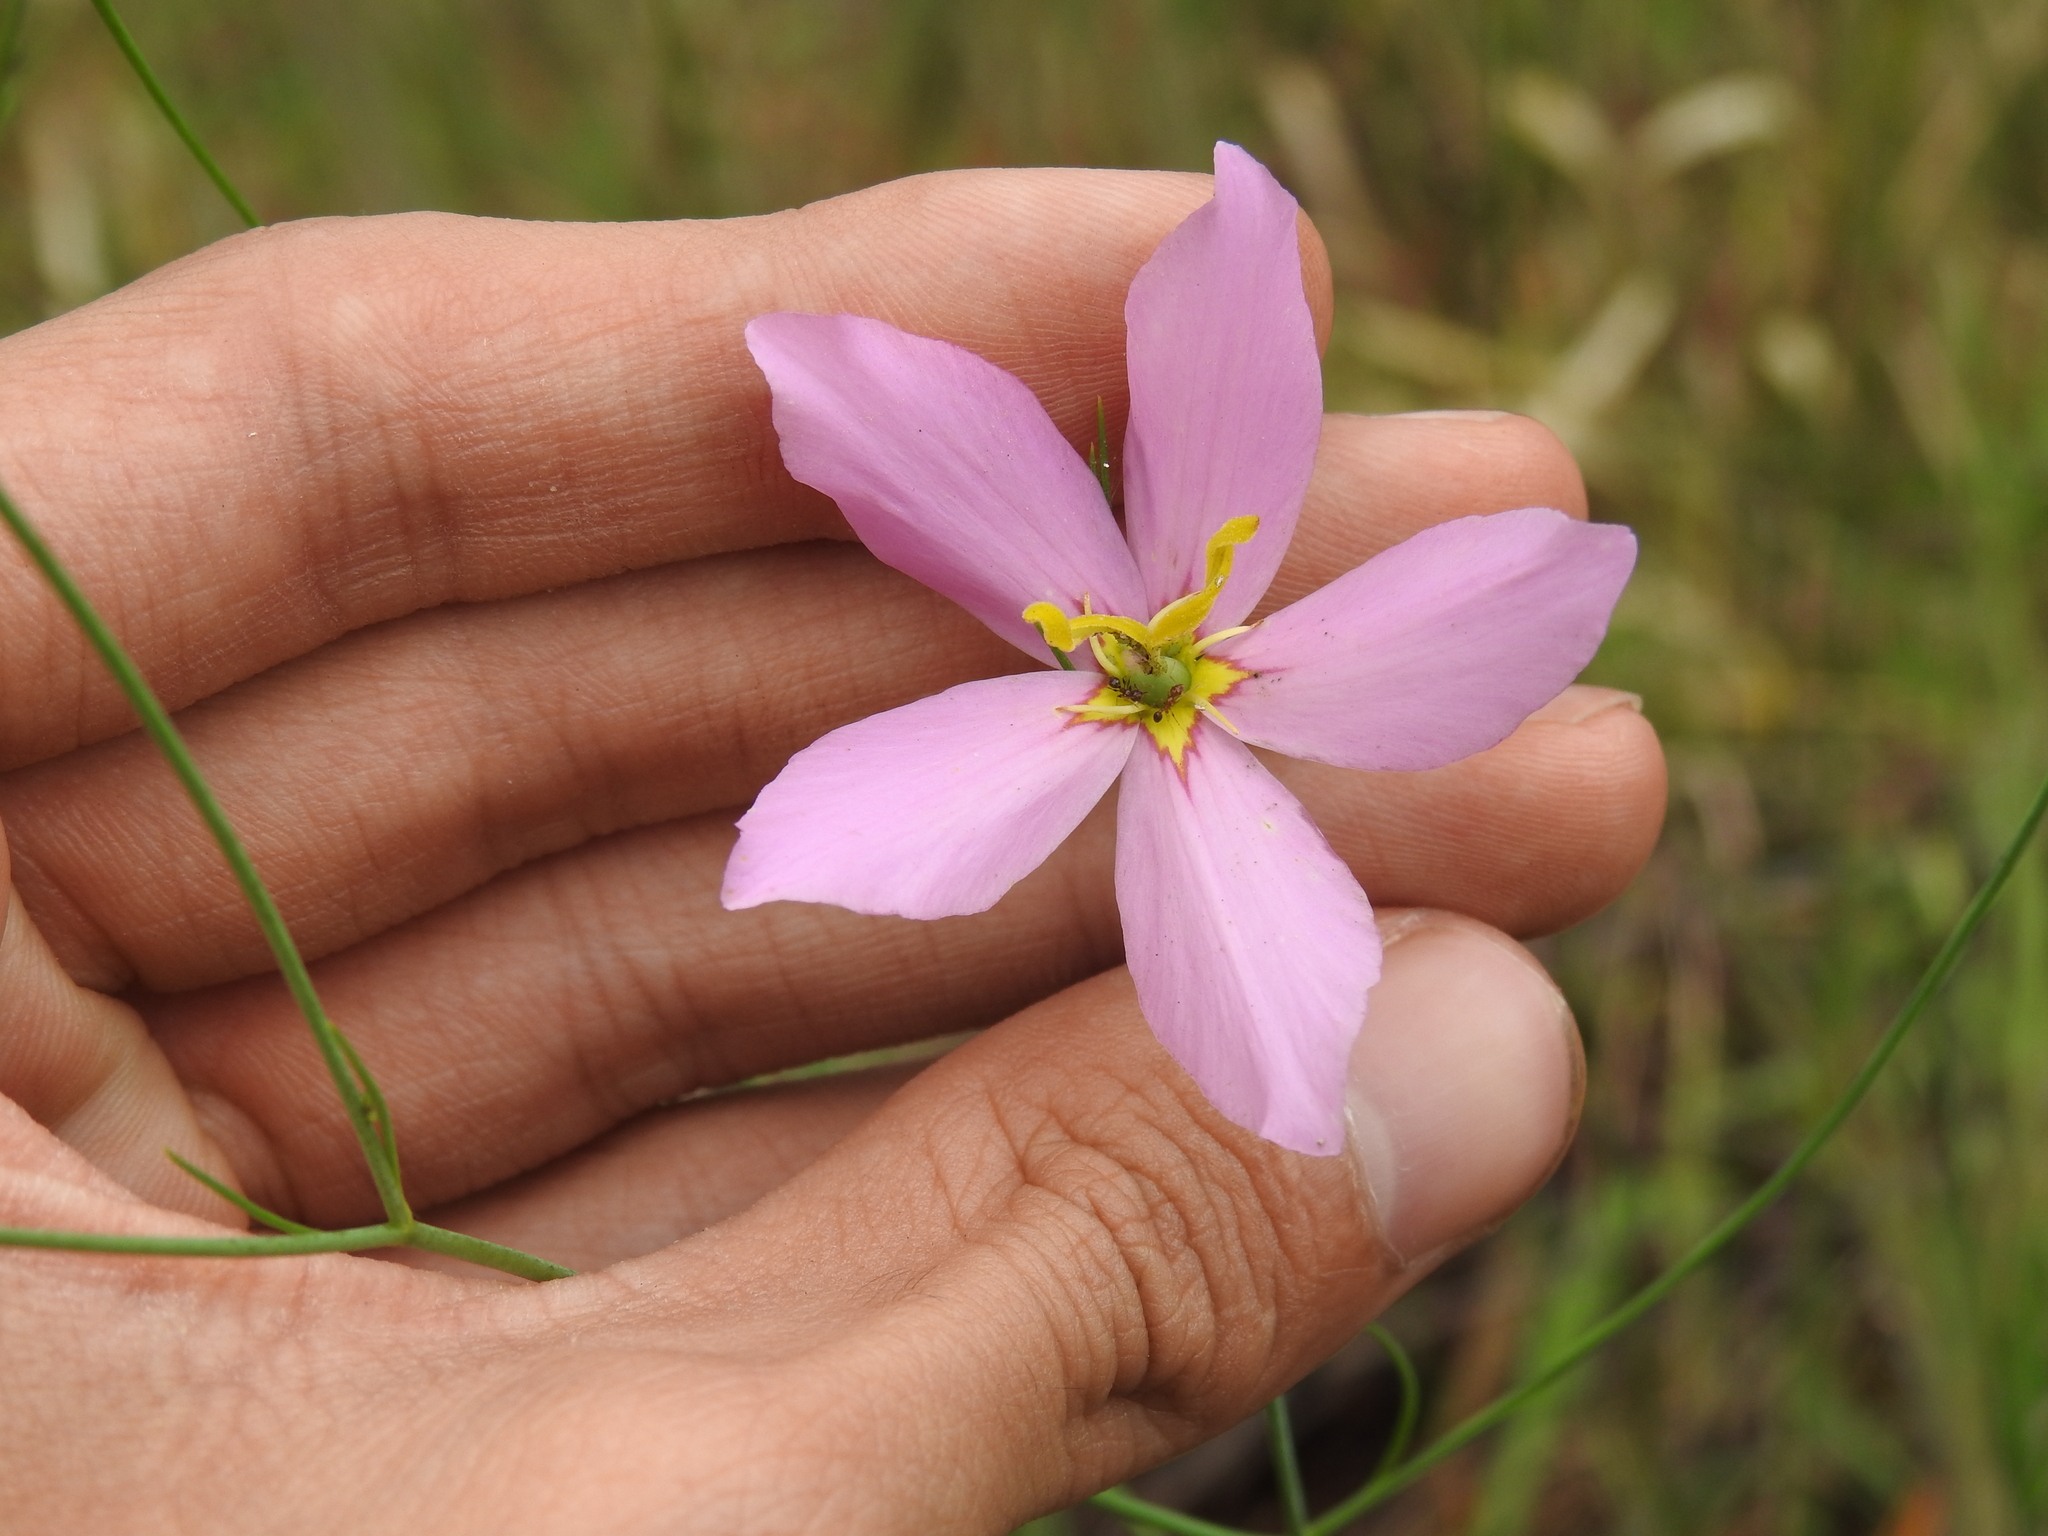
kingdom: Plantae
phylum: Tracheophyta
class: Magnoliopsida
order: Gentianales
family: Gentianaceae
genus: Sabatia
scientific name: Sabatia grandiflora
